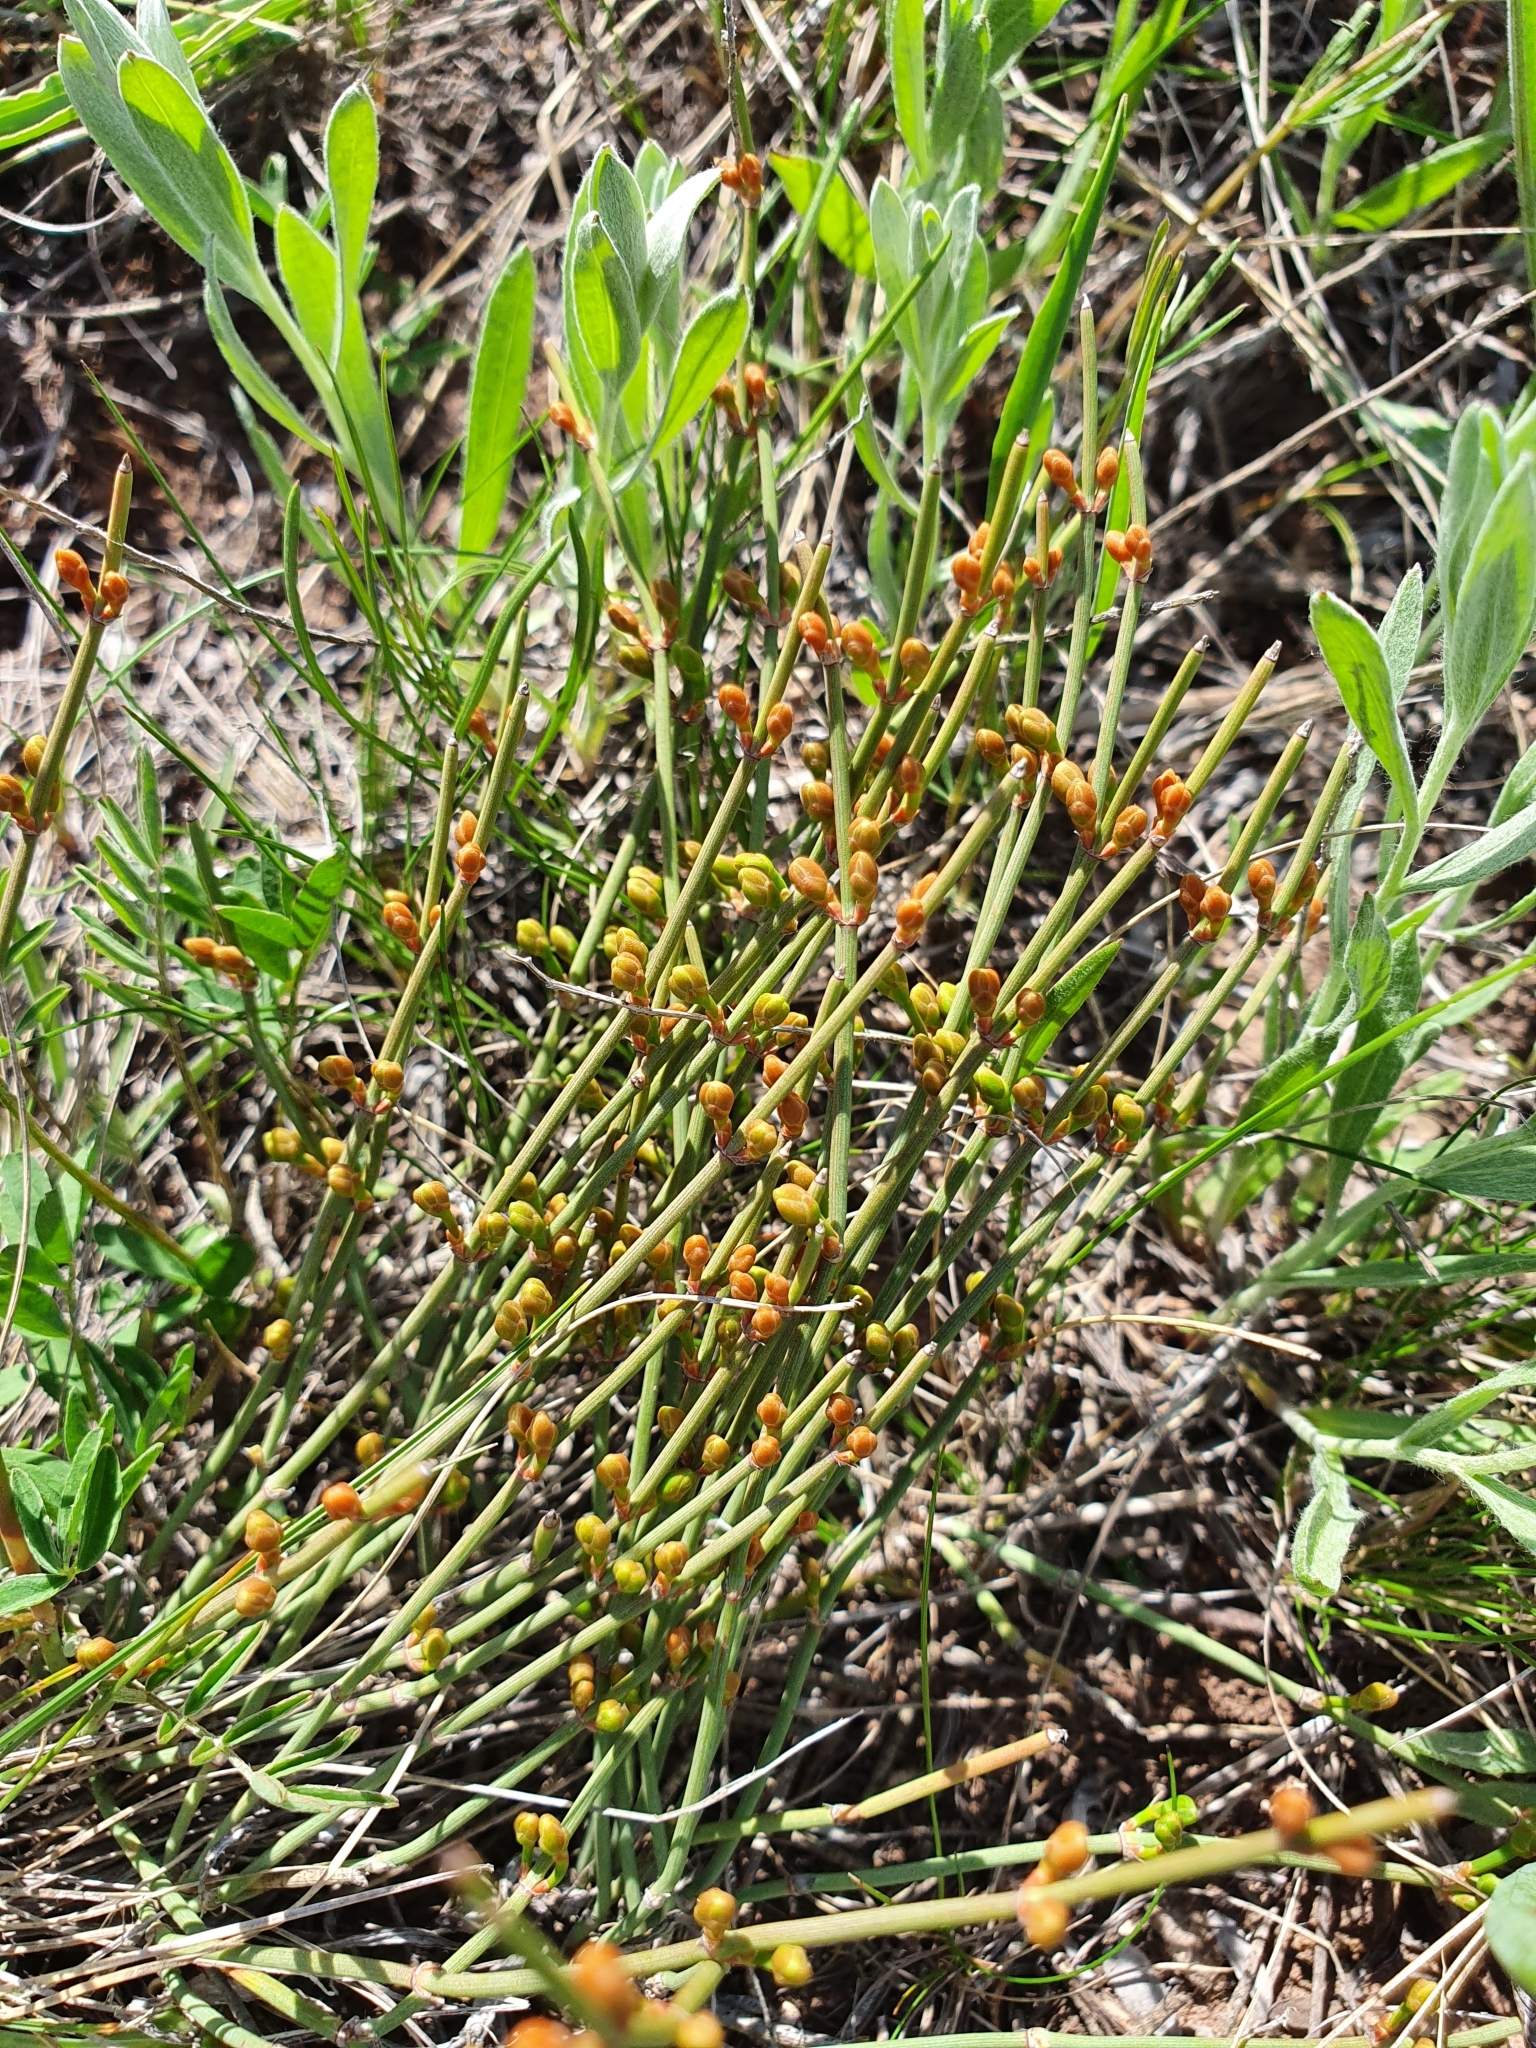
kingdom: Plantae
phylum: Tracheophyta
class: Gnetopsida
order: Ephedrales
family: Ephedraceae
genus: Ephedra
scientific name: Ephedra distachya
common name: Sea grape
